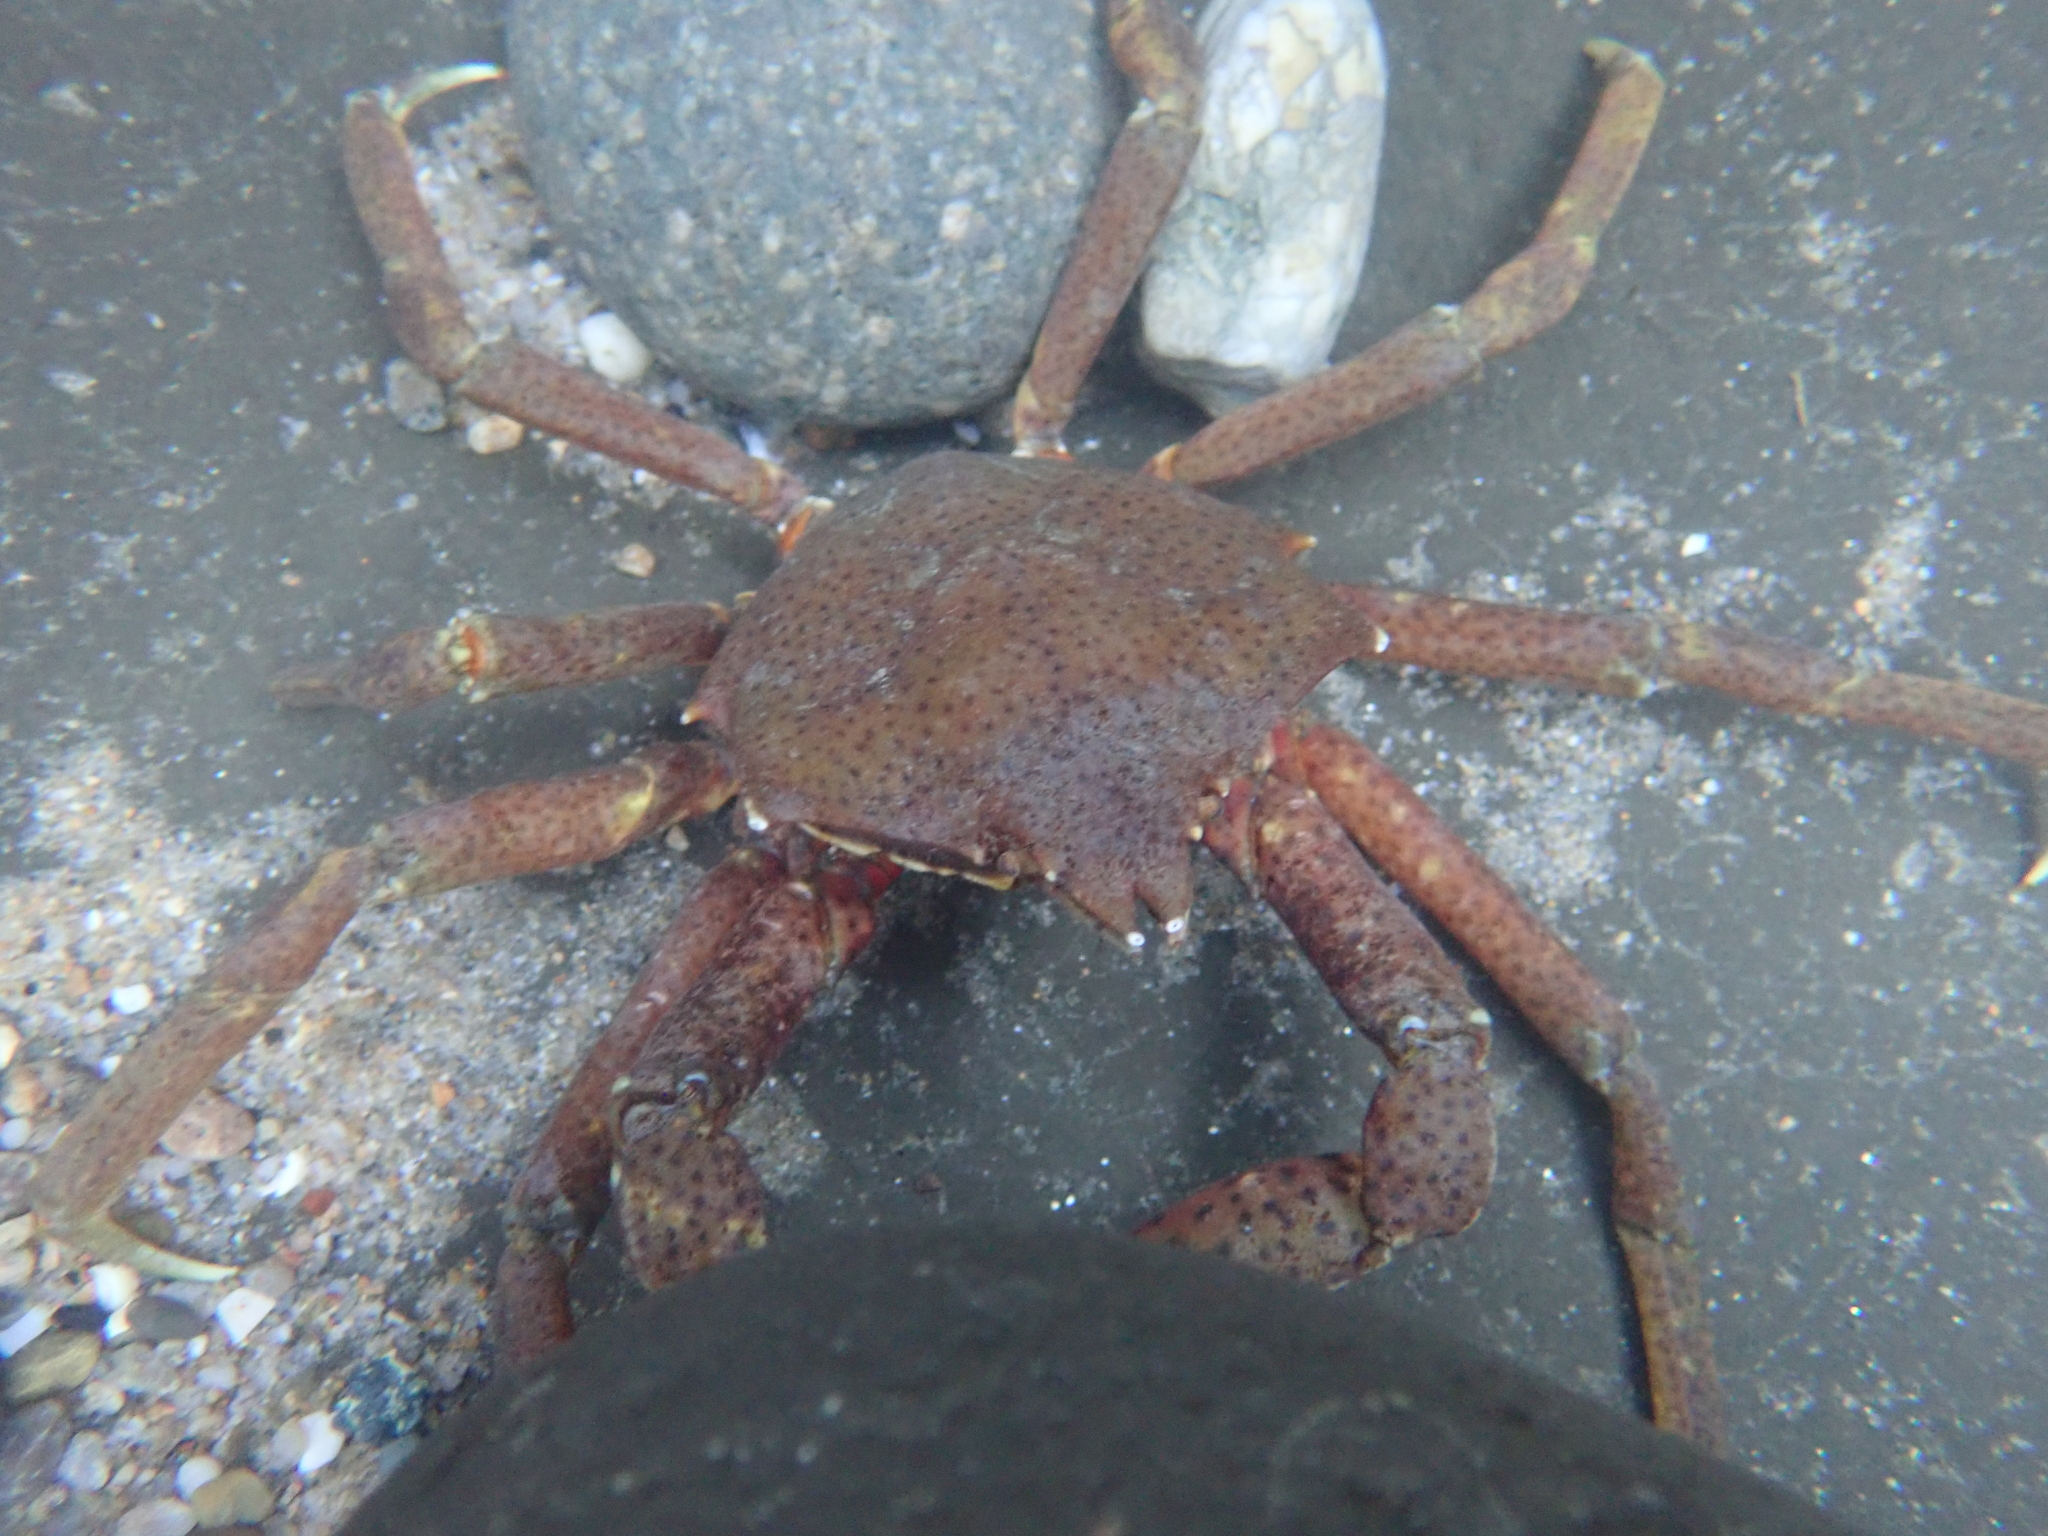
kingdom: Animalia
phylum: Arthropoda
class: Malacostraca
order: Decapoda
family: Epialtidae
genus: Pugettia
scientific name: Pugettia producta
